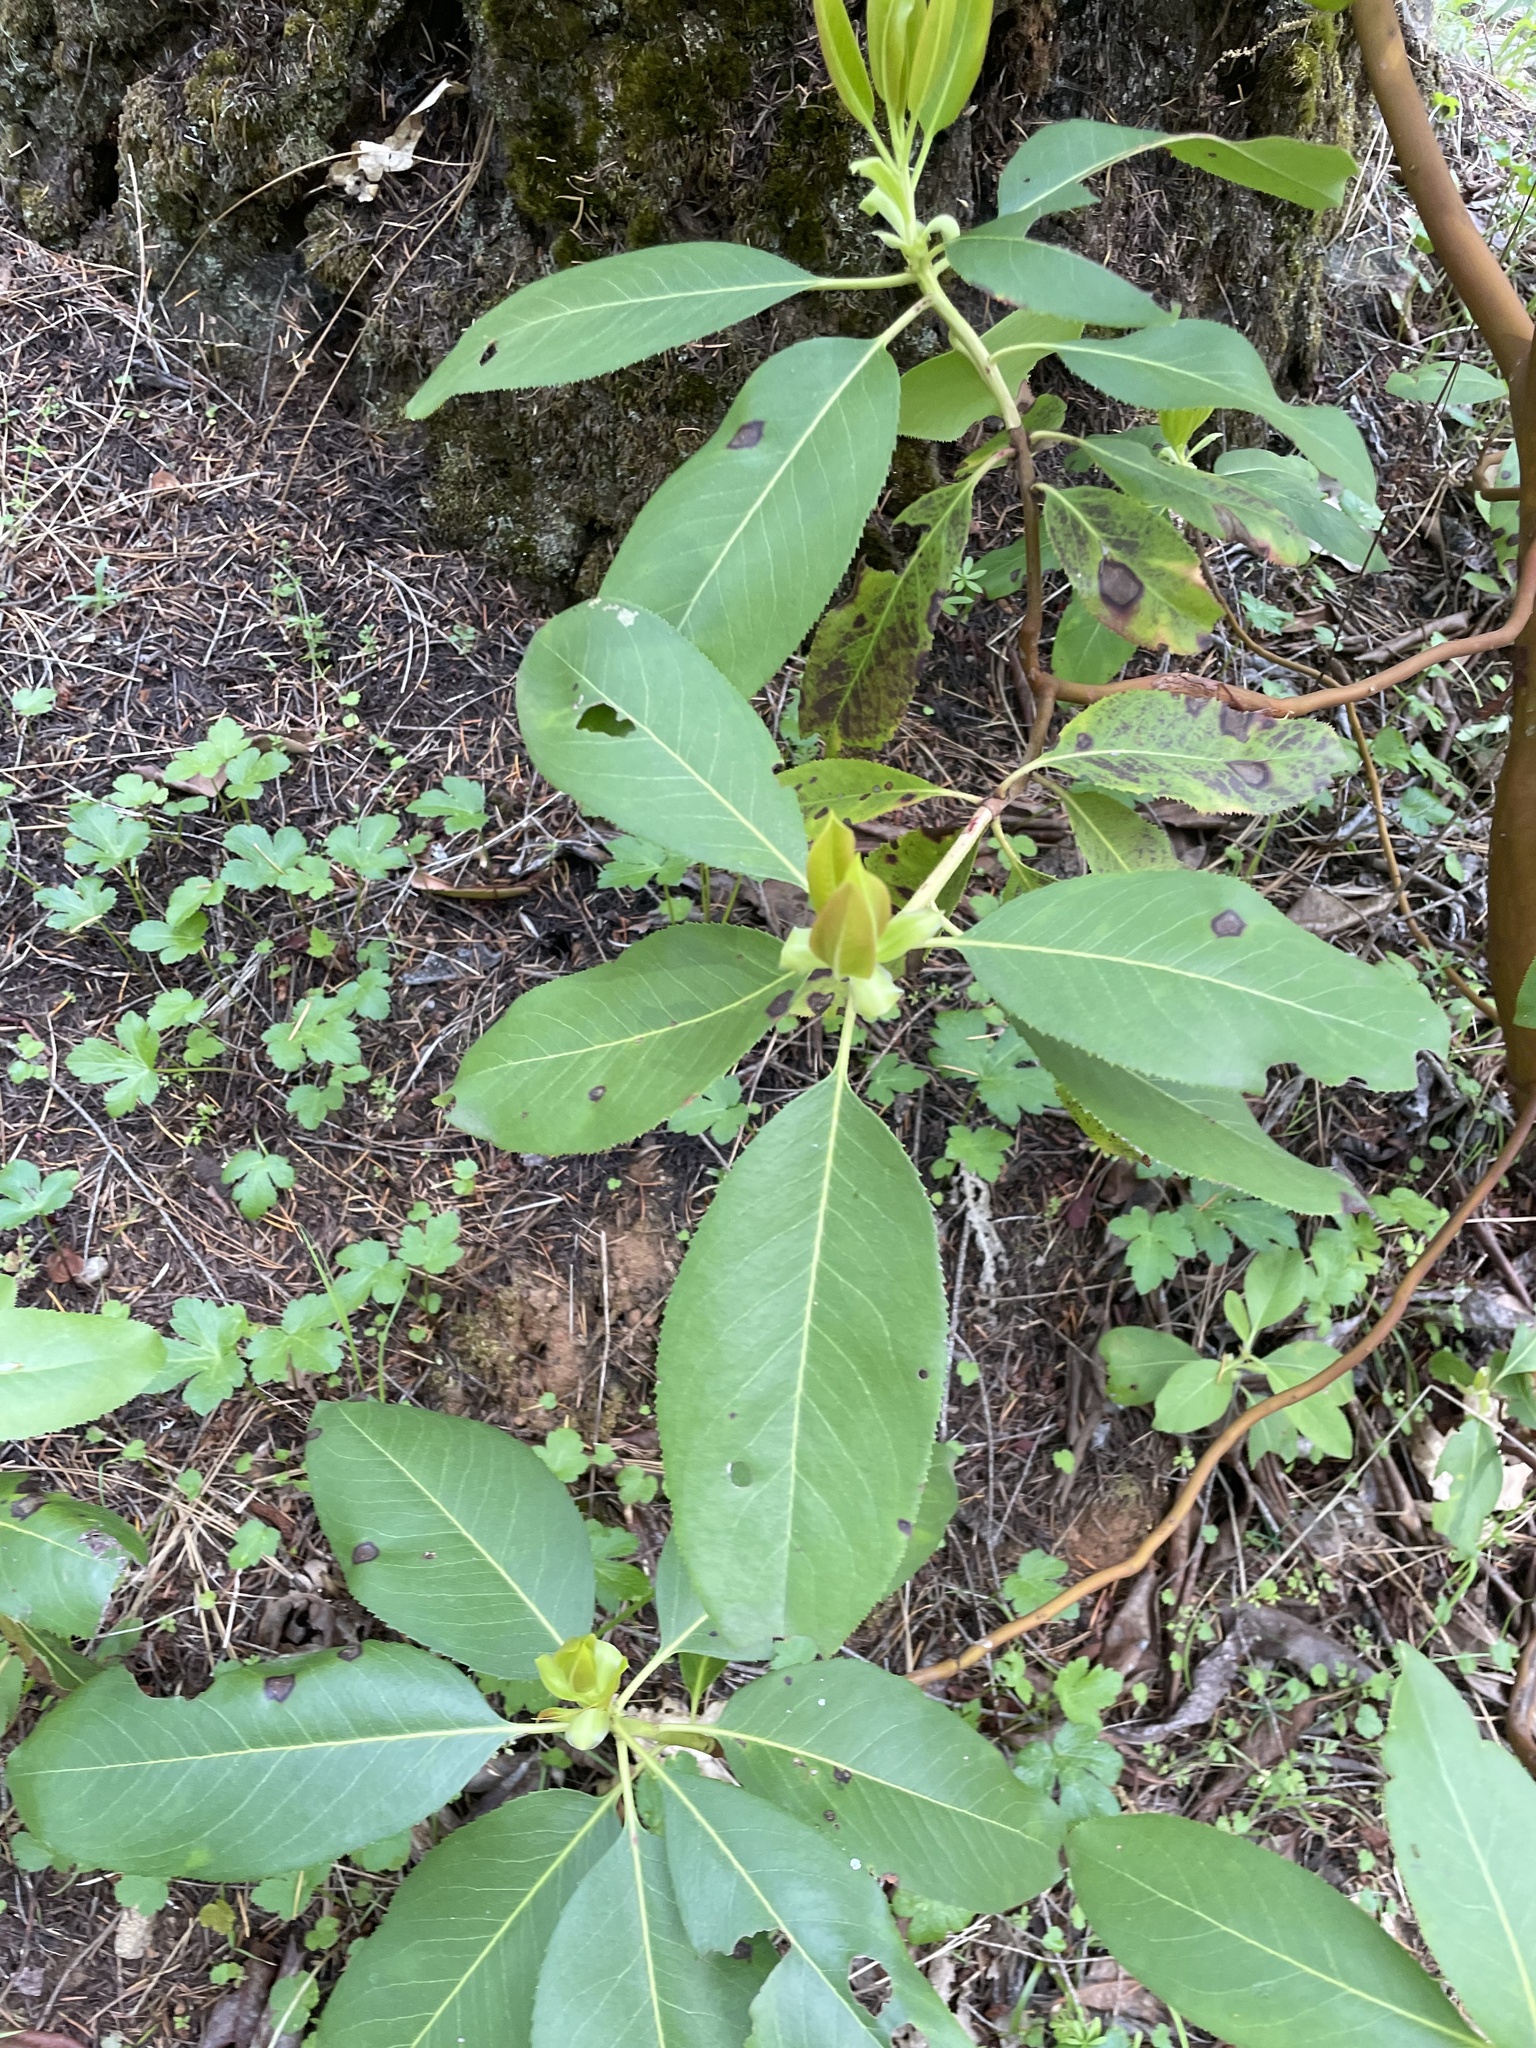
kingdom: Plantae
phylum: Tracheophyta
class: Magnoliopsida
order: Ericales
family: Ericaceae
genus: Arbutus
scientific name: Arbutus menziesii
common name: Pacific madrone
